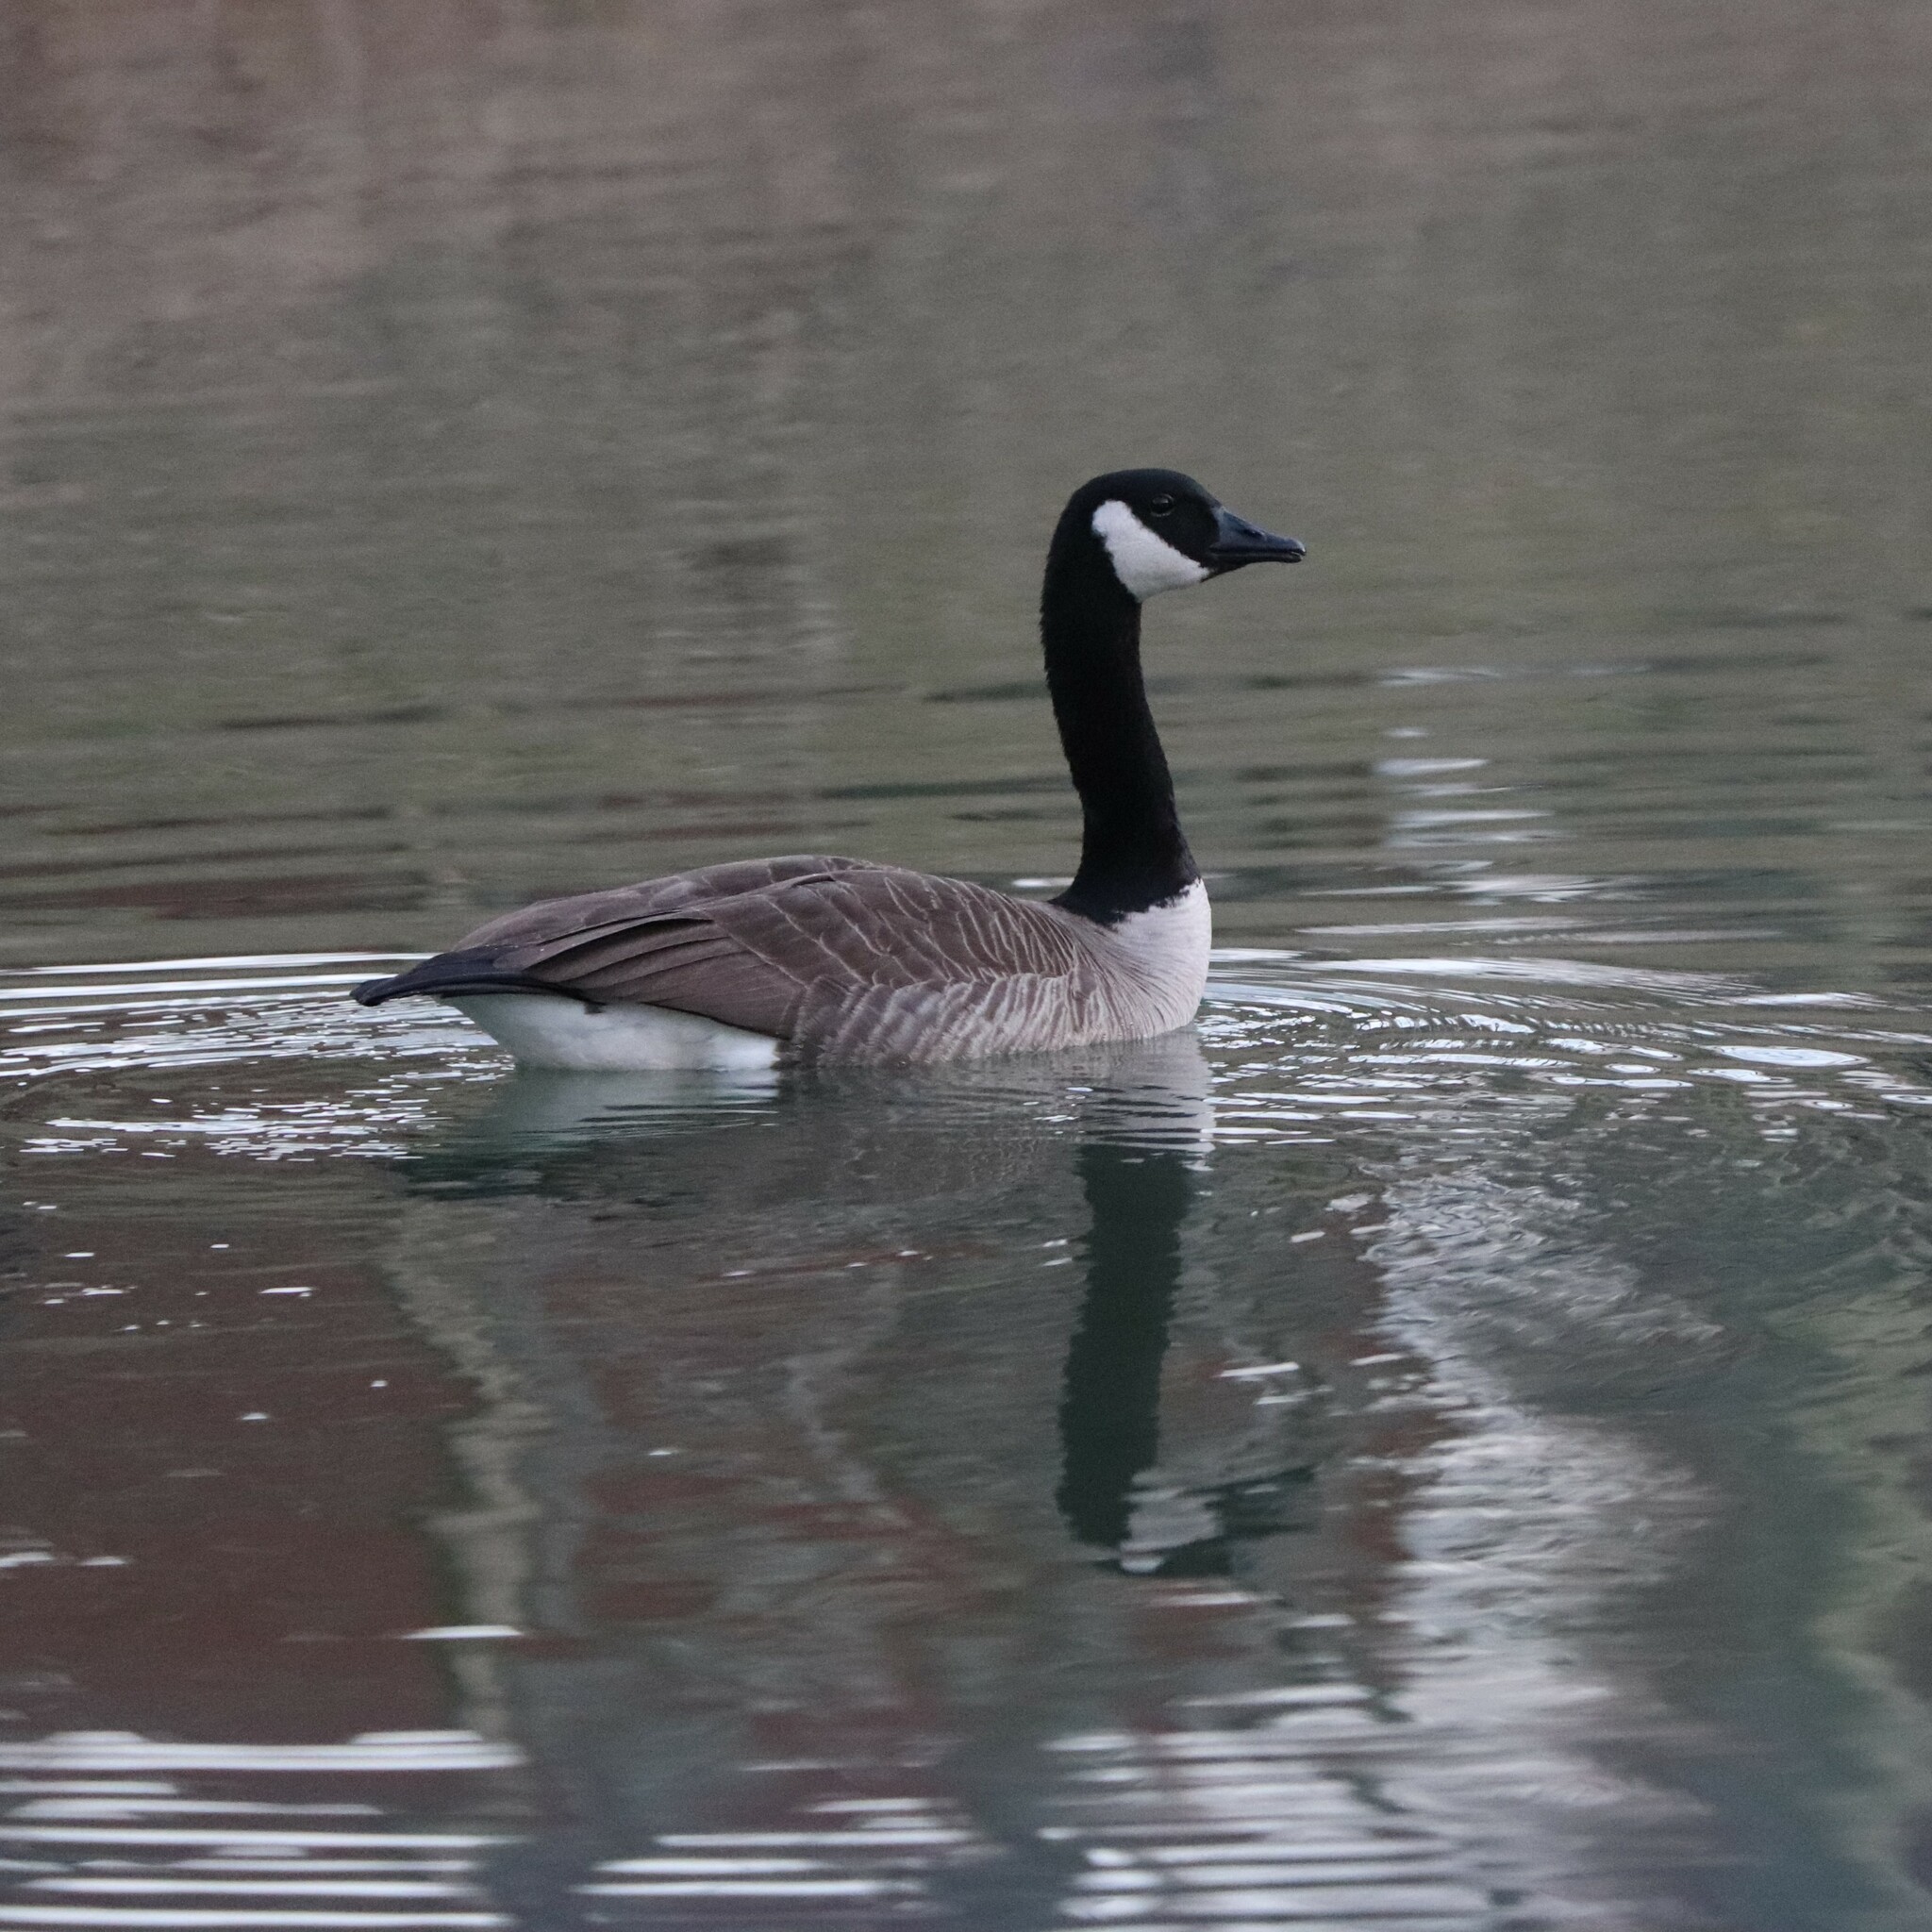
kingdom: Animalia
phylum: Chordata
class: Aves
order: Anseriformes
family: Anatidae
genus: Branta
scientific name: Branta canadensis
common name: Canada goose
